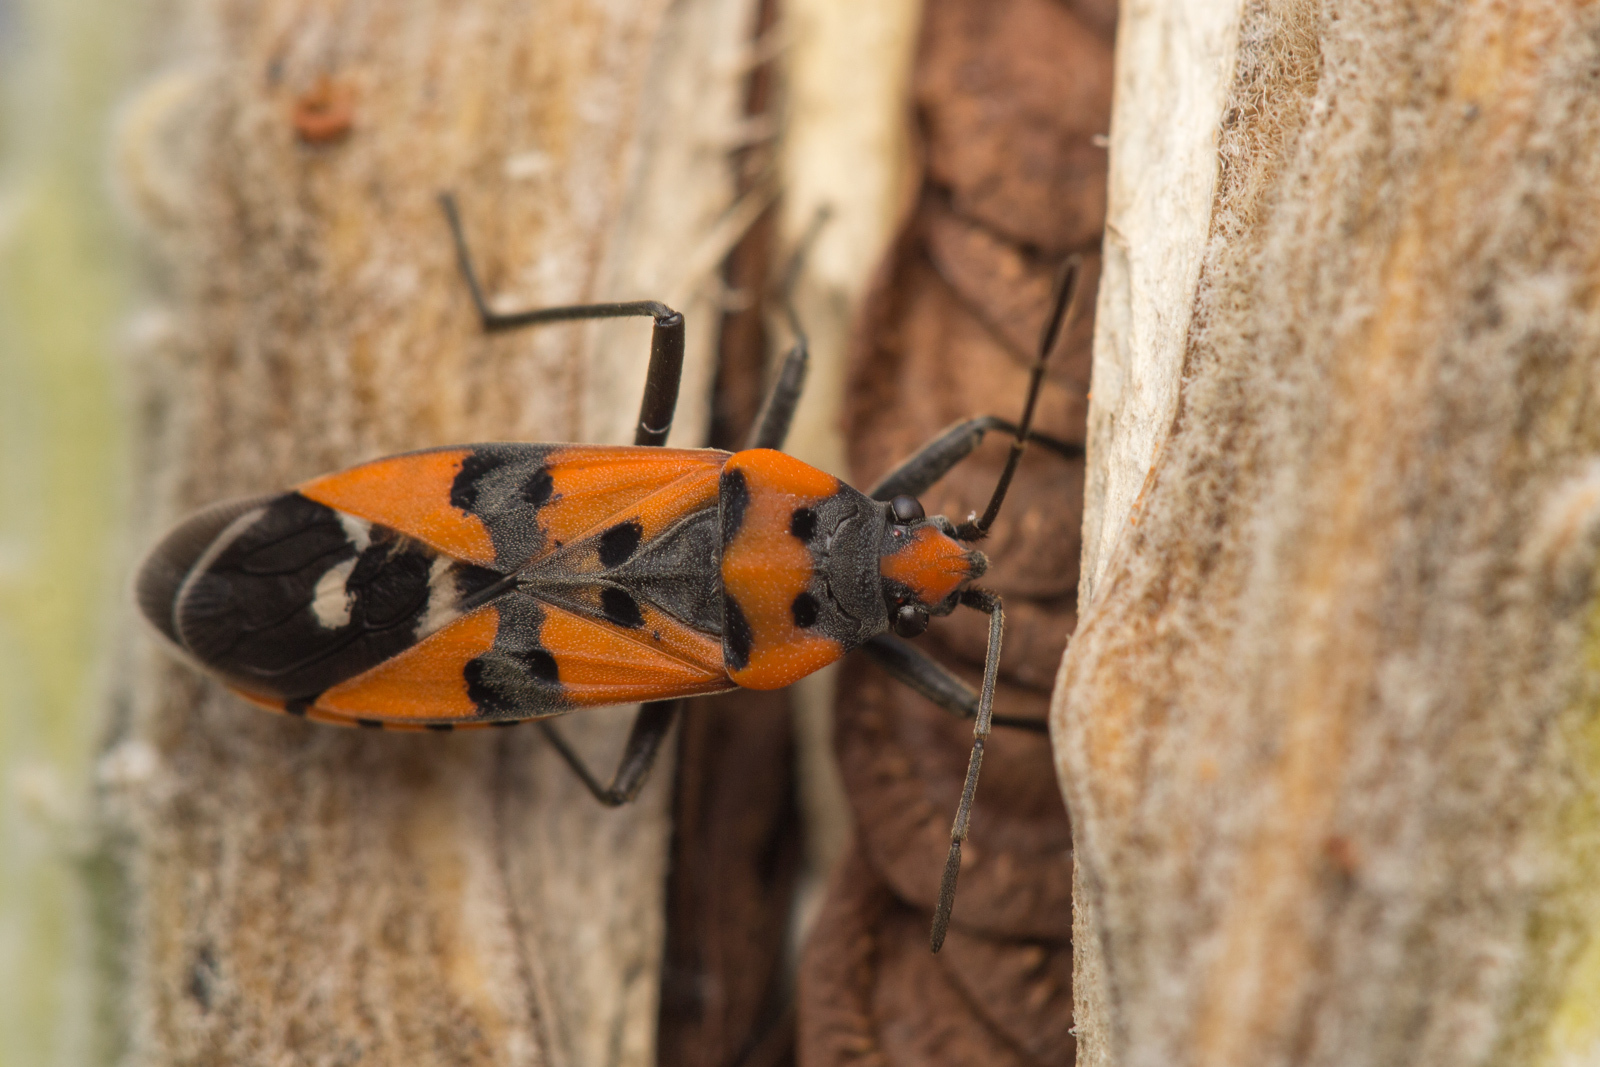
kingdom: Animalia
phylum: Arthropoda
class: Insecta
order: Hemiptera
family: Lygaeidae
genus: Lygaeus
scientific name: Lygaeus simulans
